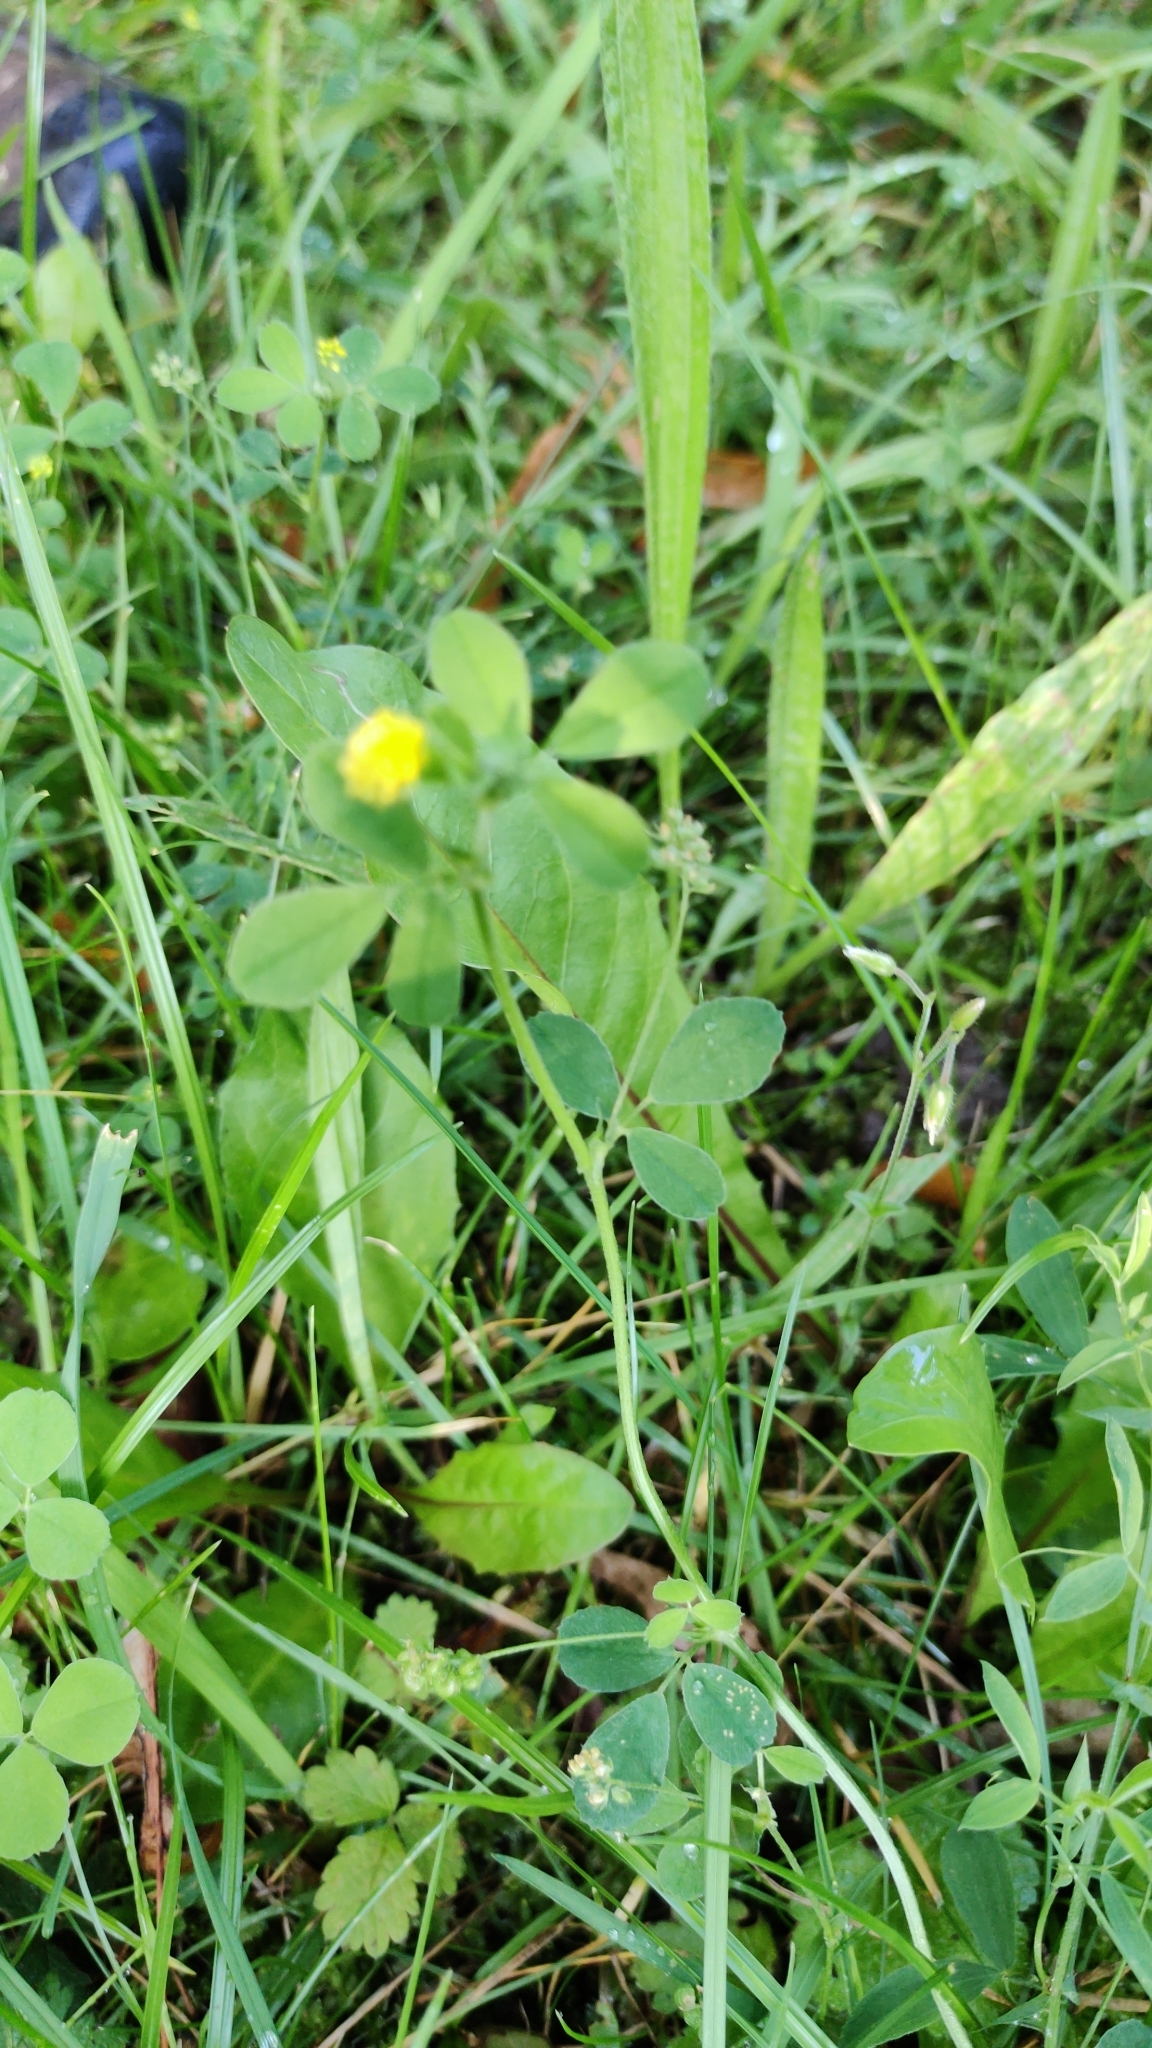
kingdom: Plantae
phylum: Tracheophyta
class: Magnoliopsida
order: Fabales
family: Fabaceae
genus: Medicago
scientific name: Medicago lupulina
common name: Black medick
